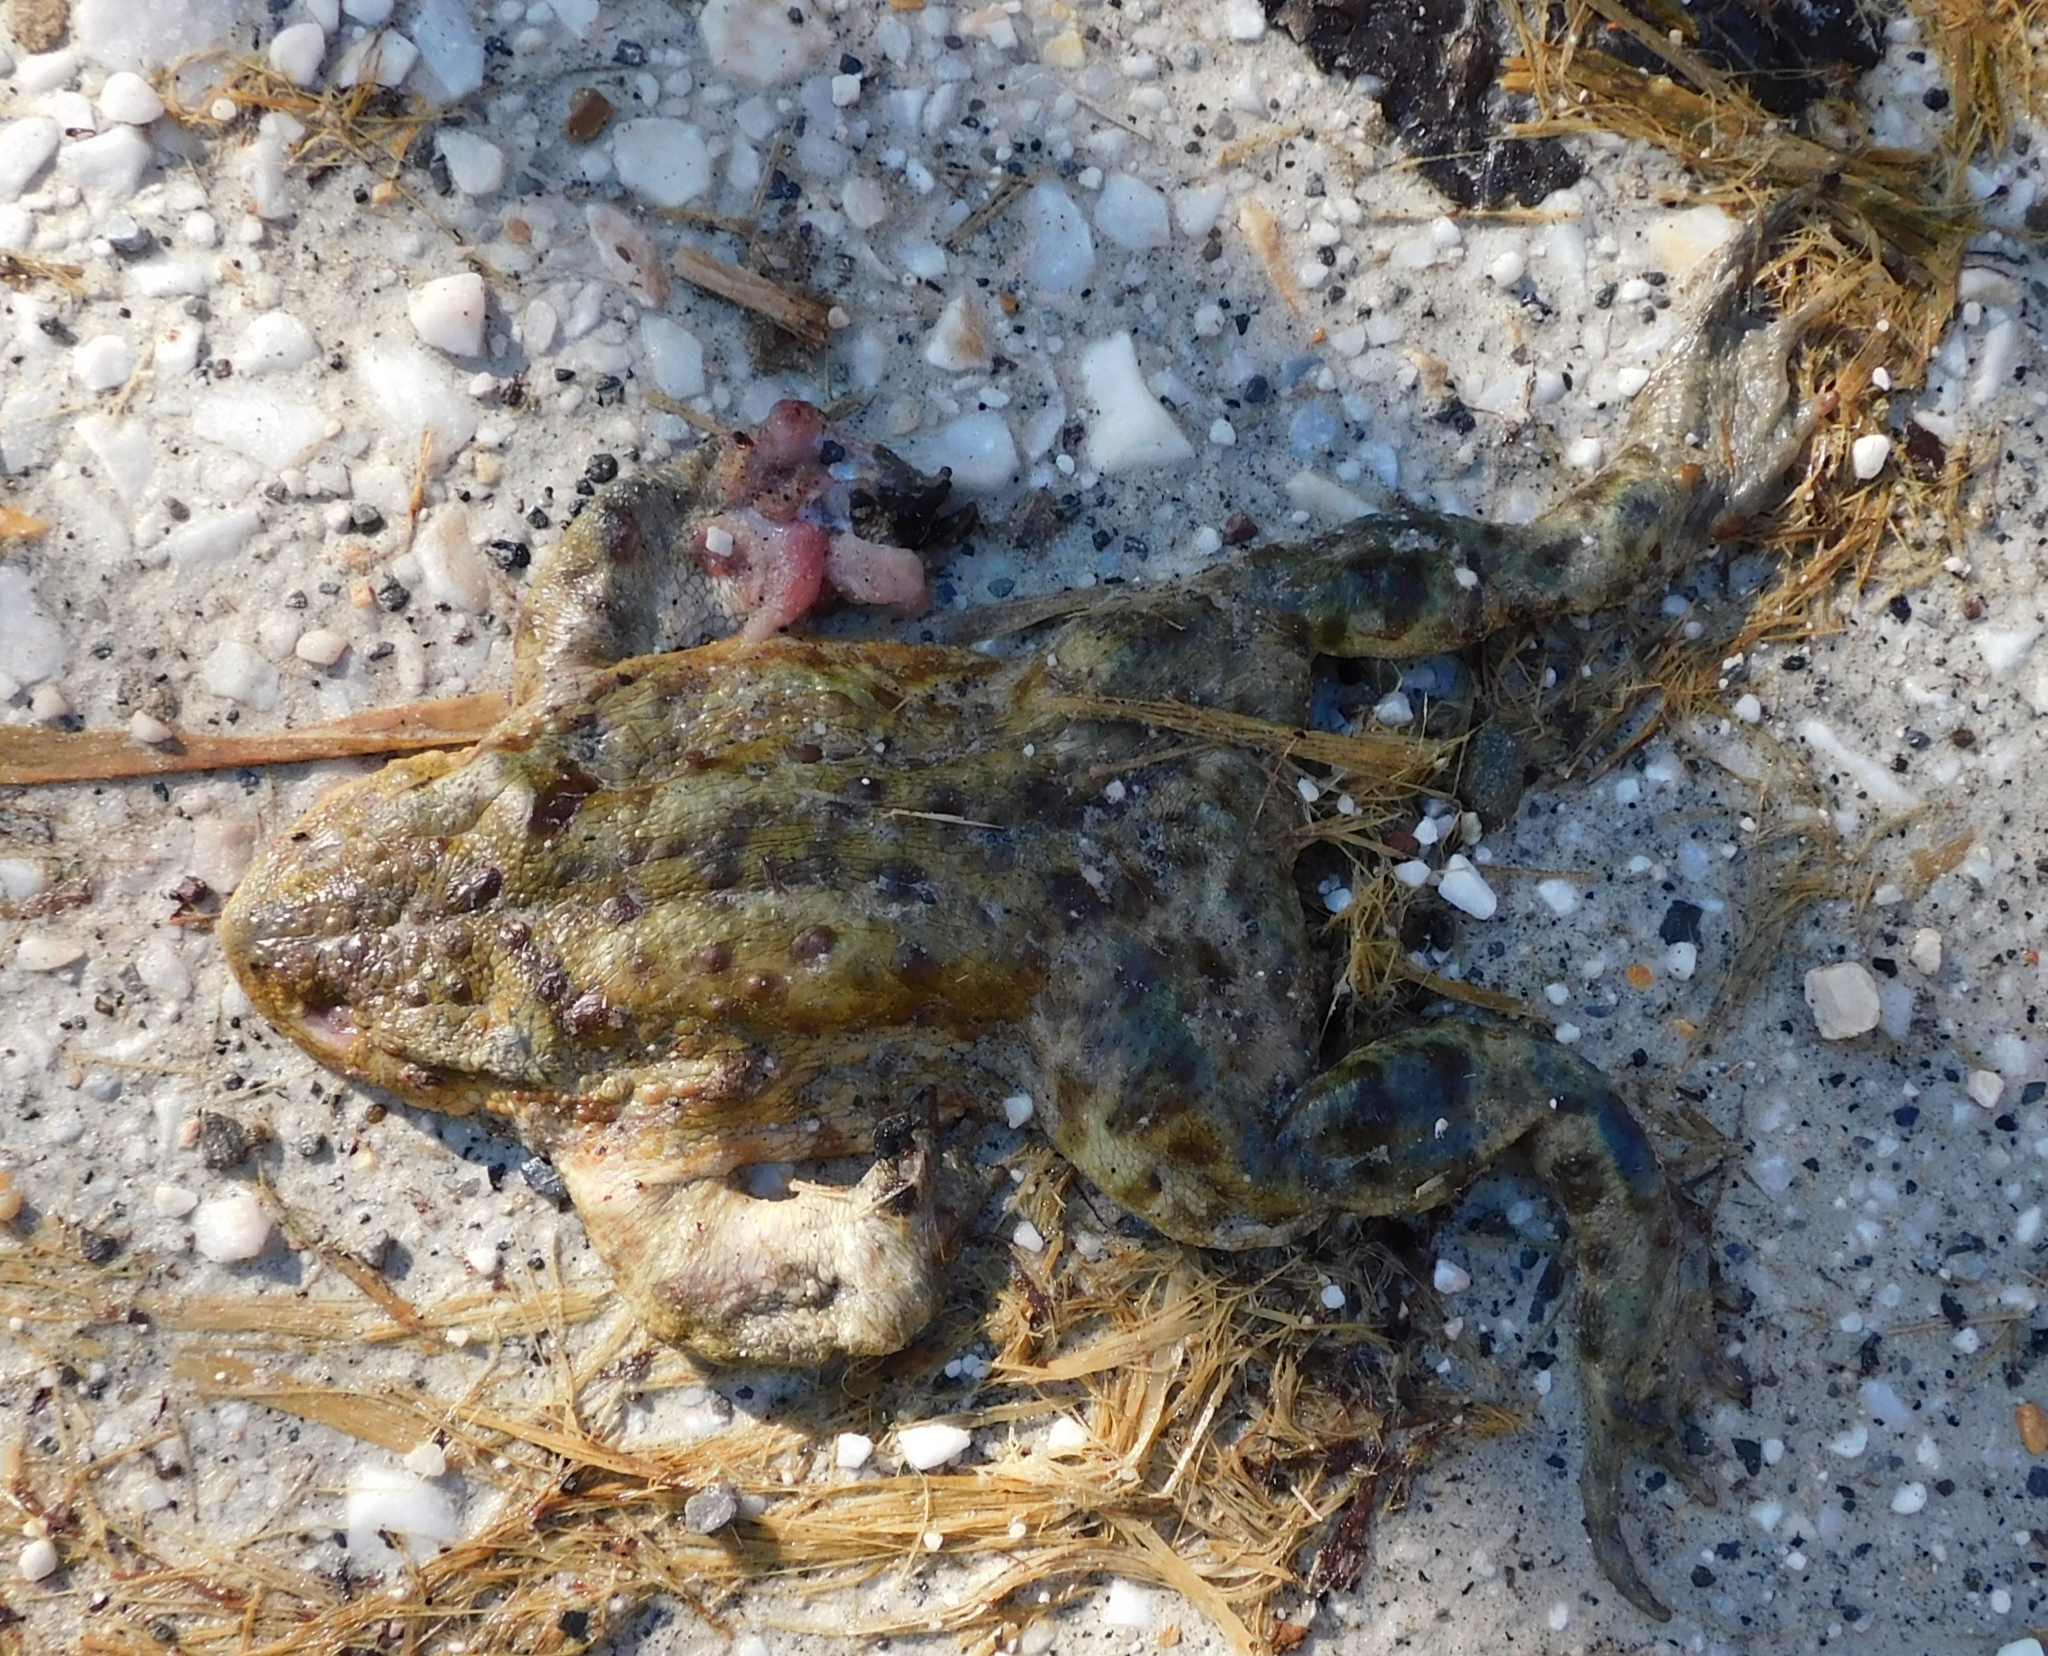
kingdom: Animalia
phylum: Chordata
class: Amphibia
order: Anura
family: Bufonidae
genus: Bufo
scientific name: Bufo bufo
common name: Common toad
